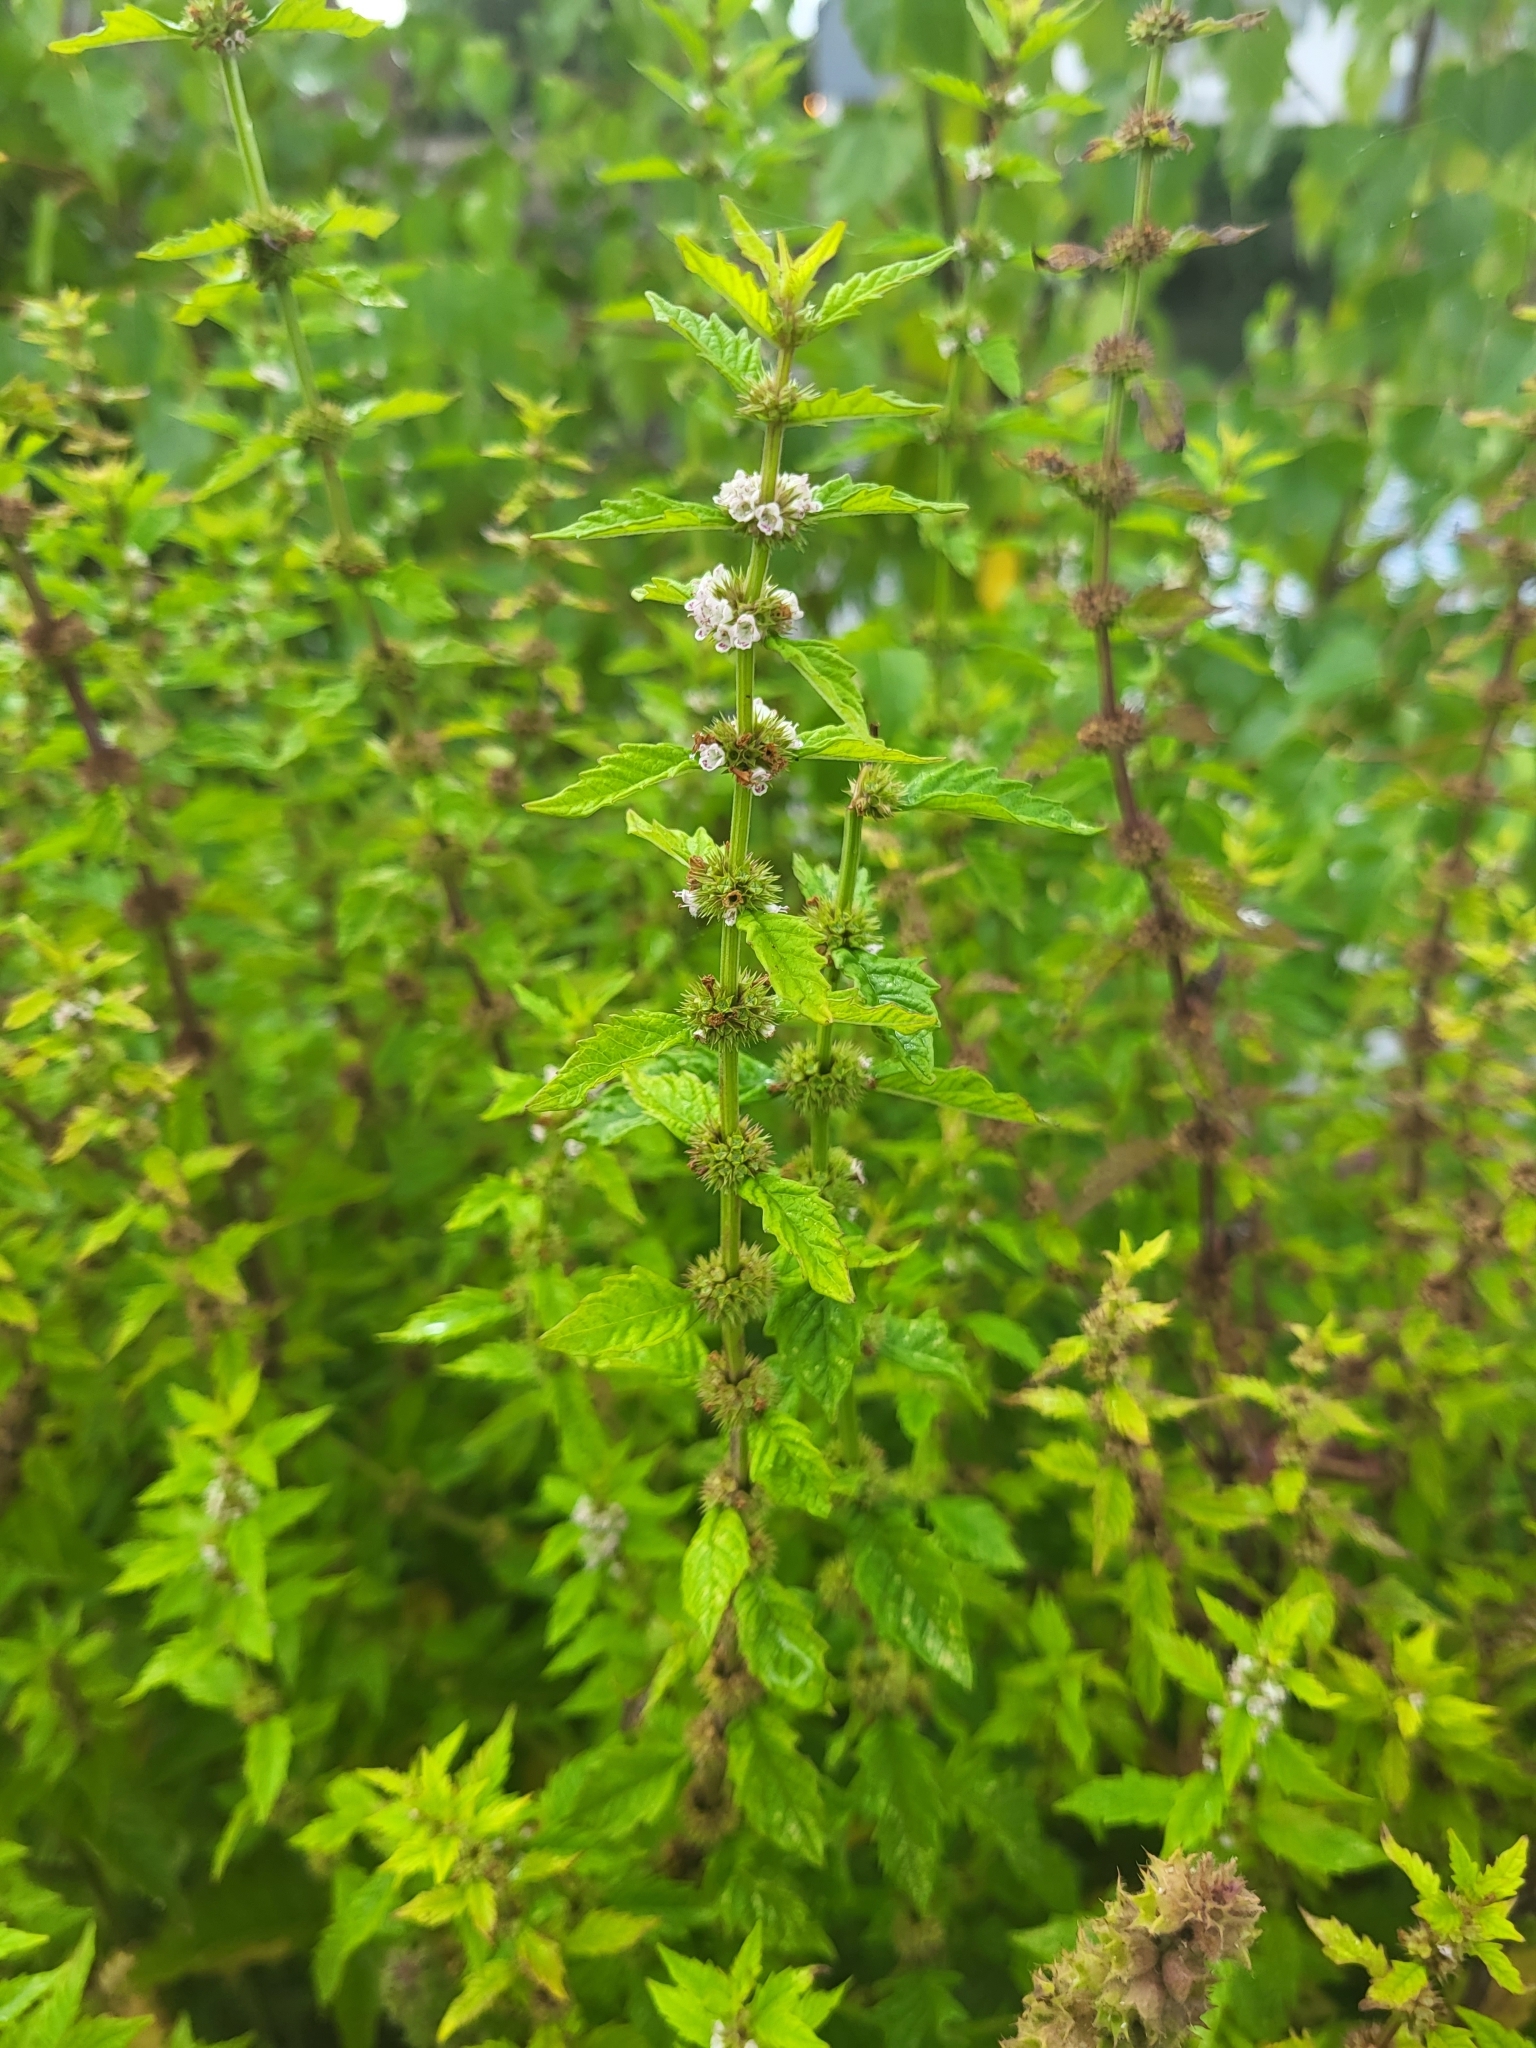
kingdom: Plantae
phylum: Tracheophyta
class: Magnoliopsida
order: Lamiales
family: Lamiaceae
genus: Lycopus
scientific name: Lycopus europaeus
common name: European bugleweed
